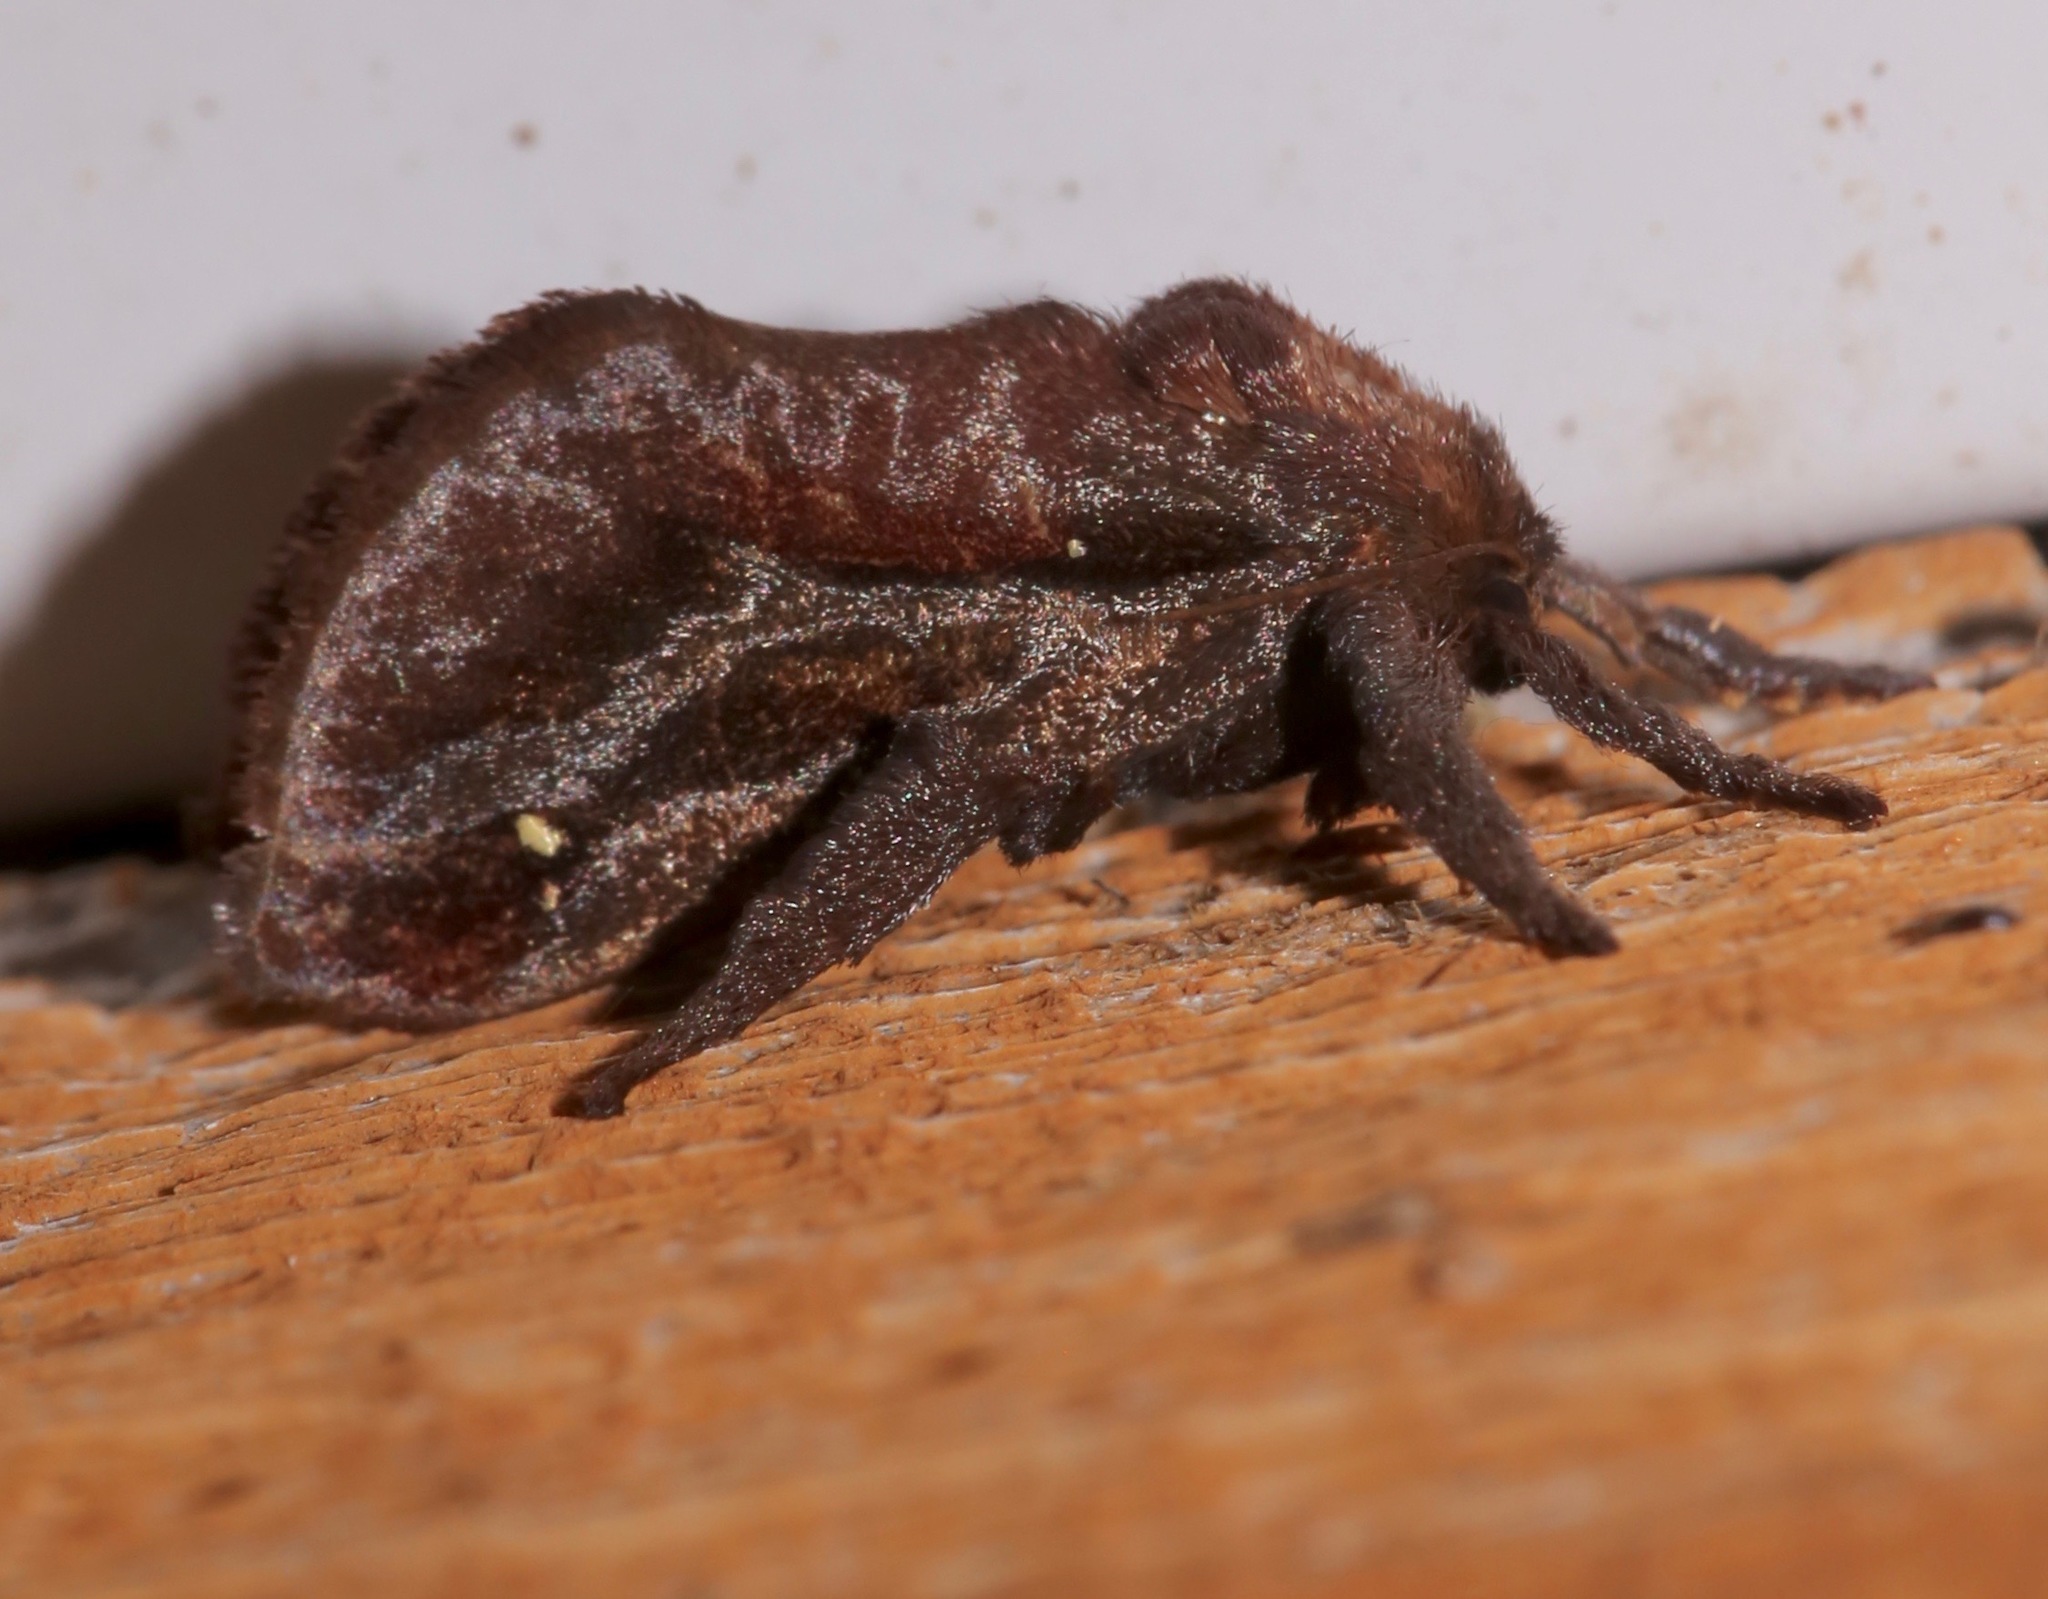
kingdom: Animalia
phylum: Arthropoda
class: Insecta
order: Lepidoptera
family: Limacodidae
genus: Acharia
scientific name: Acharia stimulea
